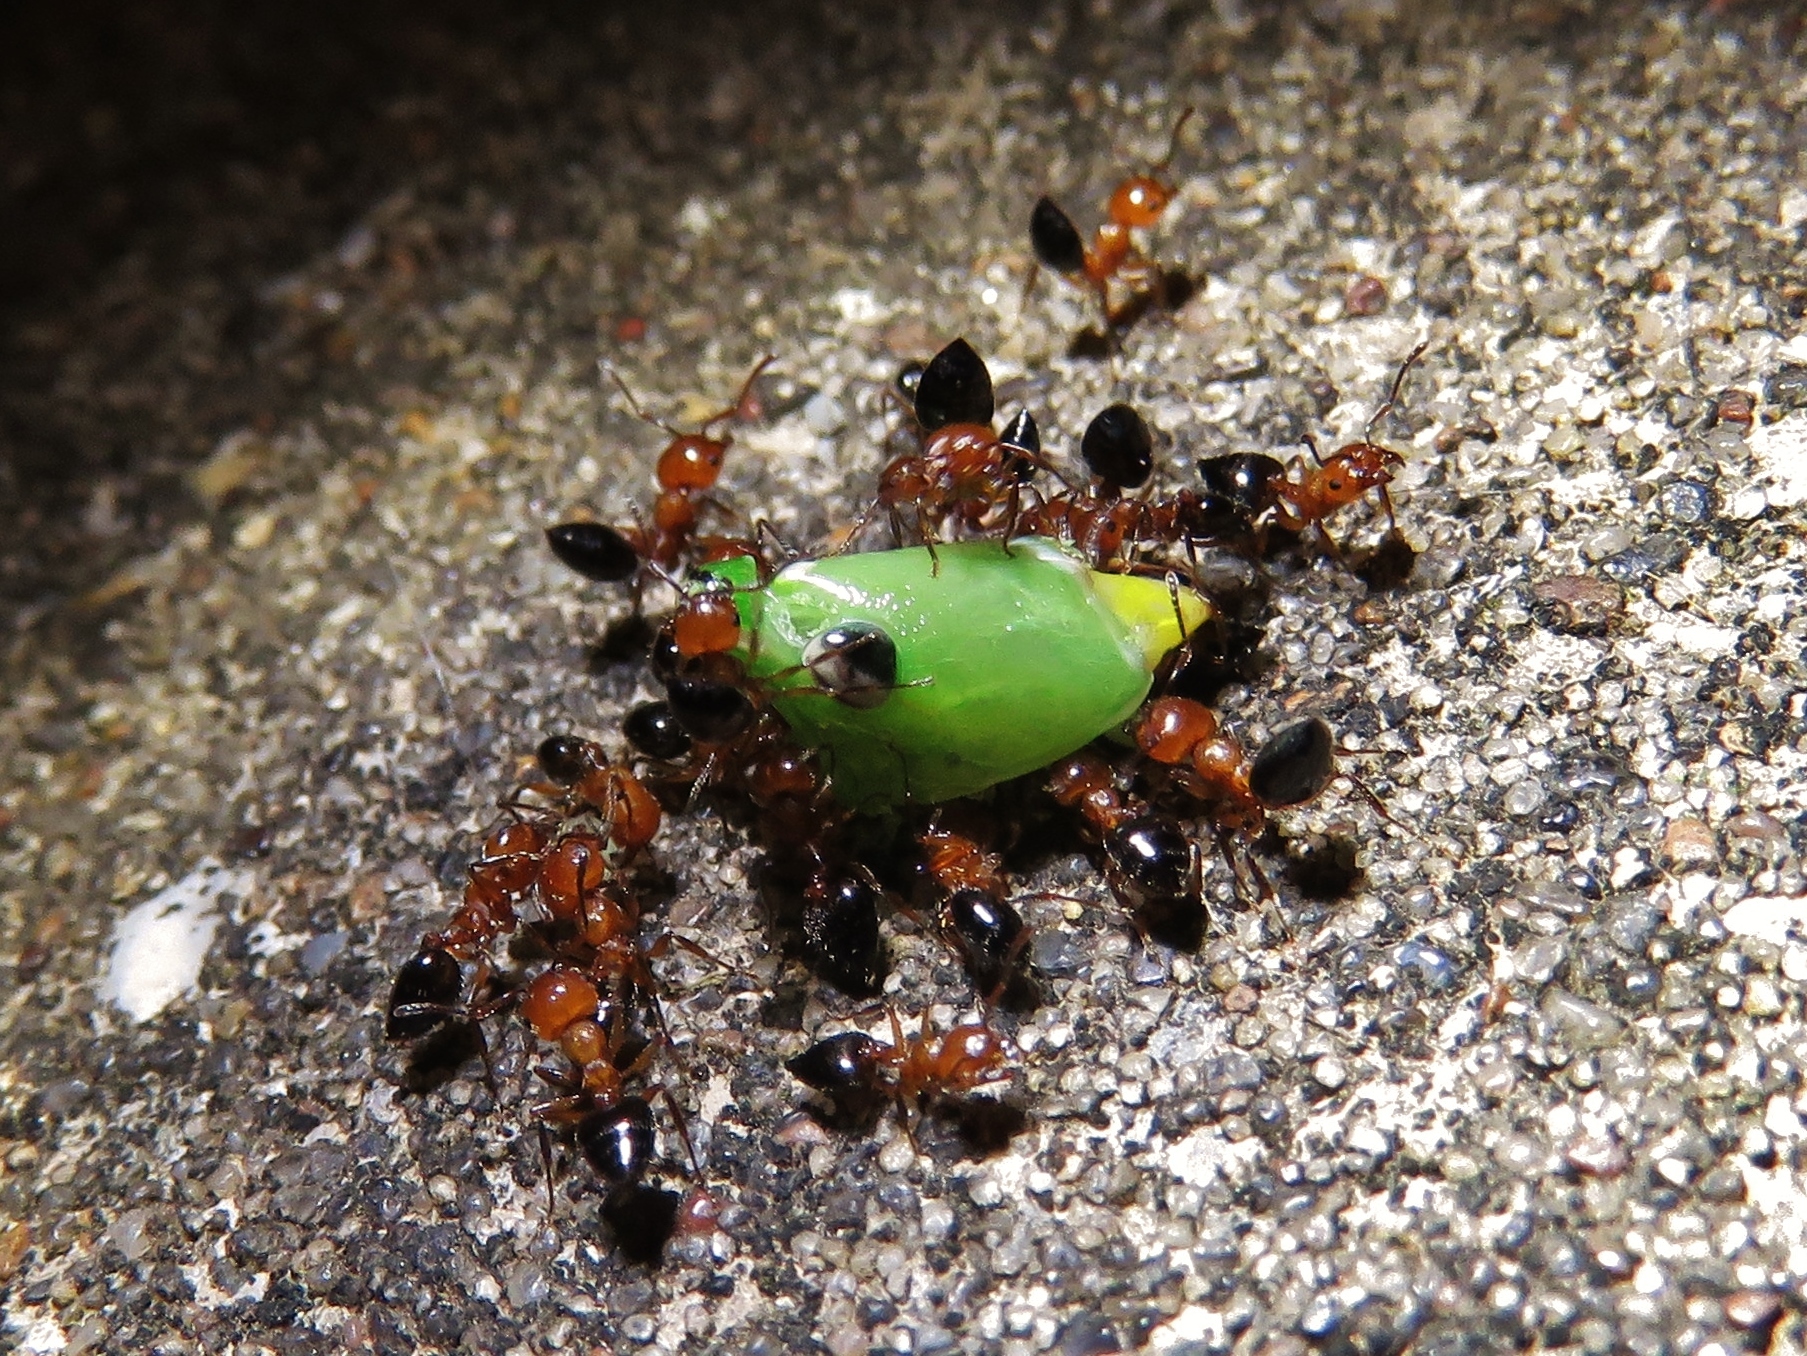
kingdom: Animalia
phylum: Arthropoda
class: Insecta
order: Hymenoptera
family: Formicidae
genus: Crematogaster
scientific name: Crematogaster laeviuscula
